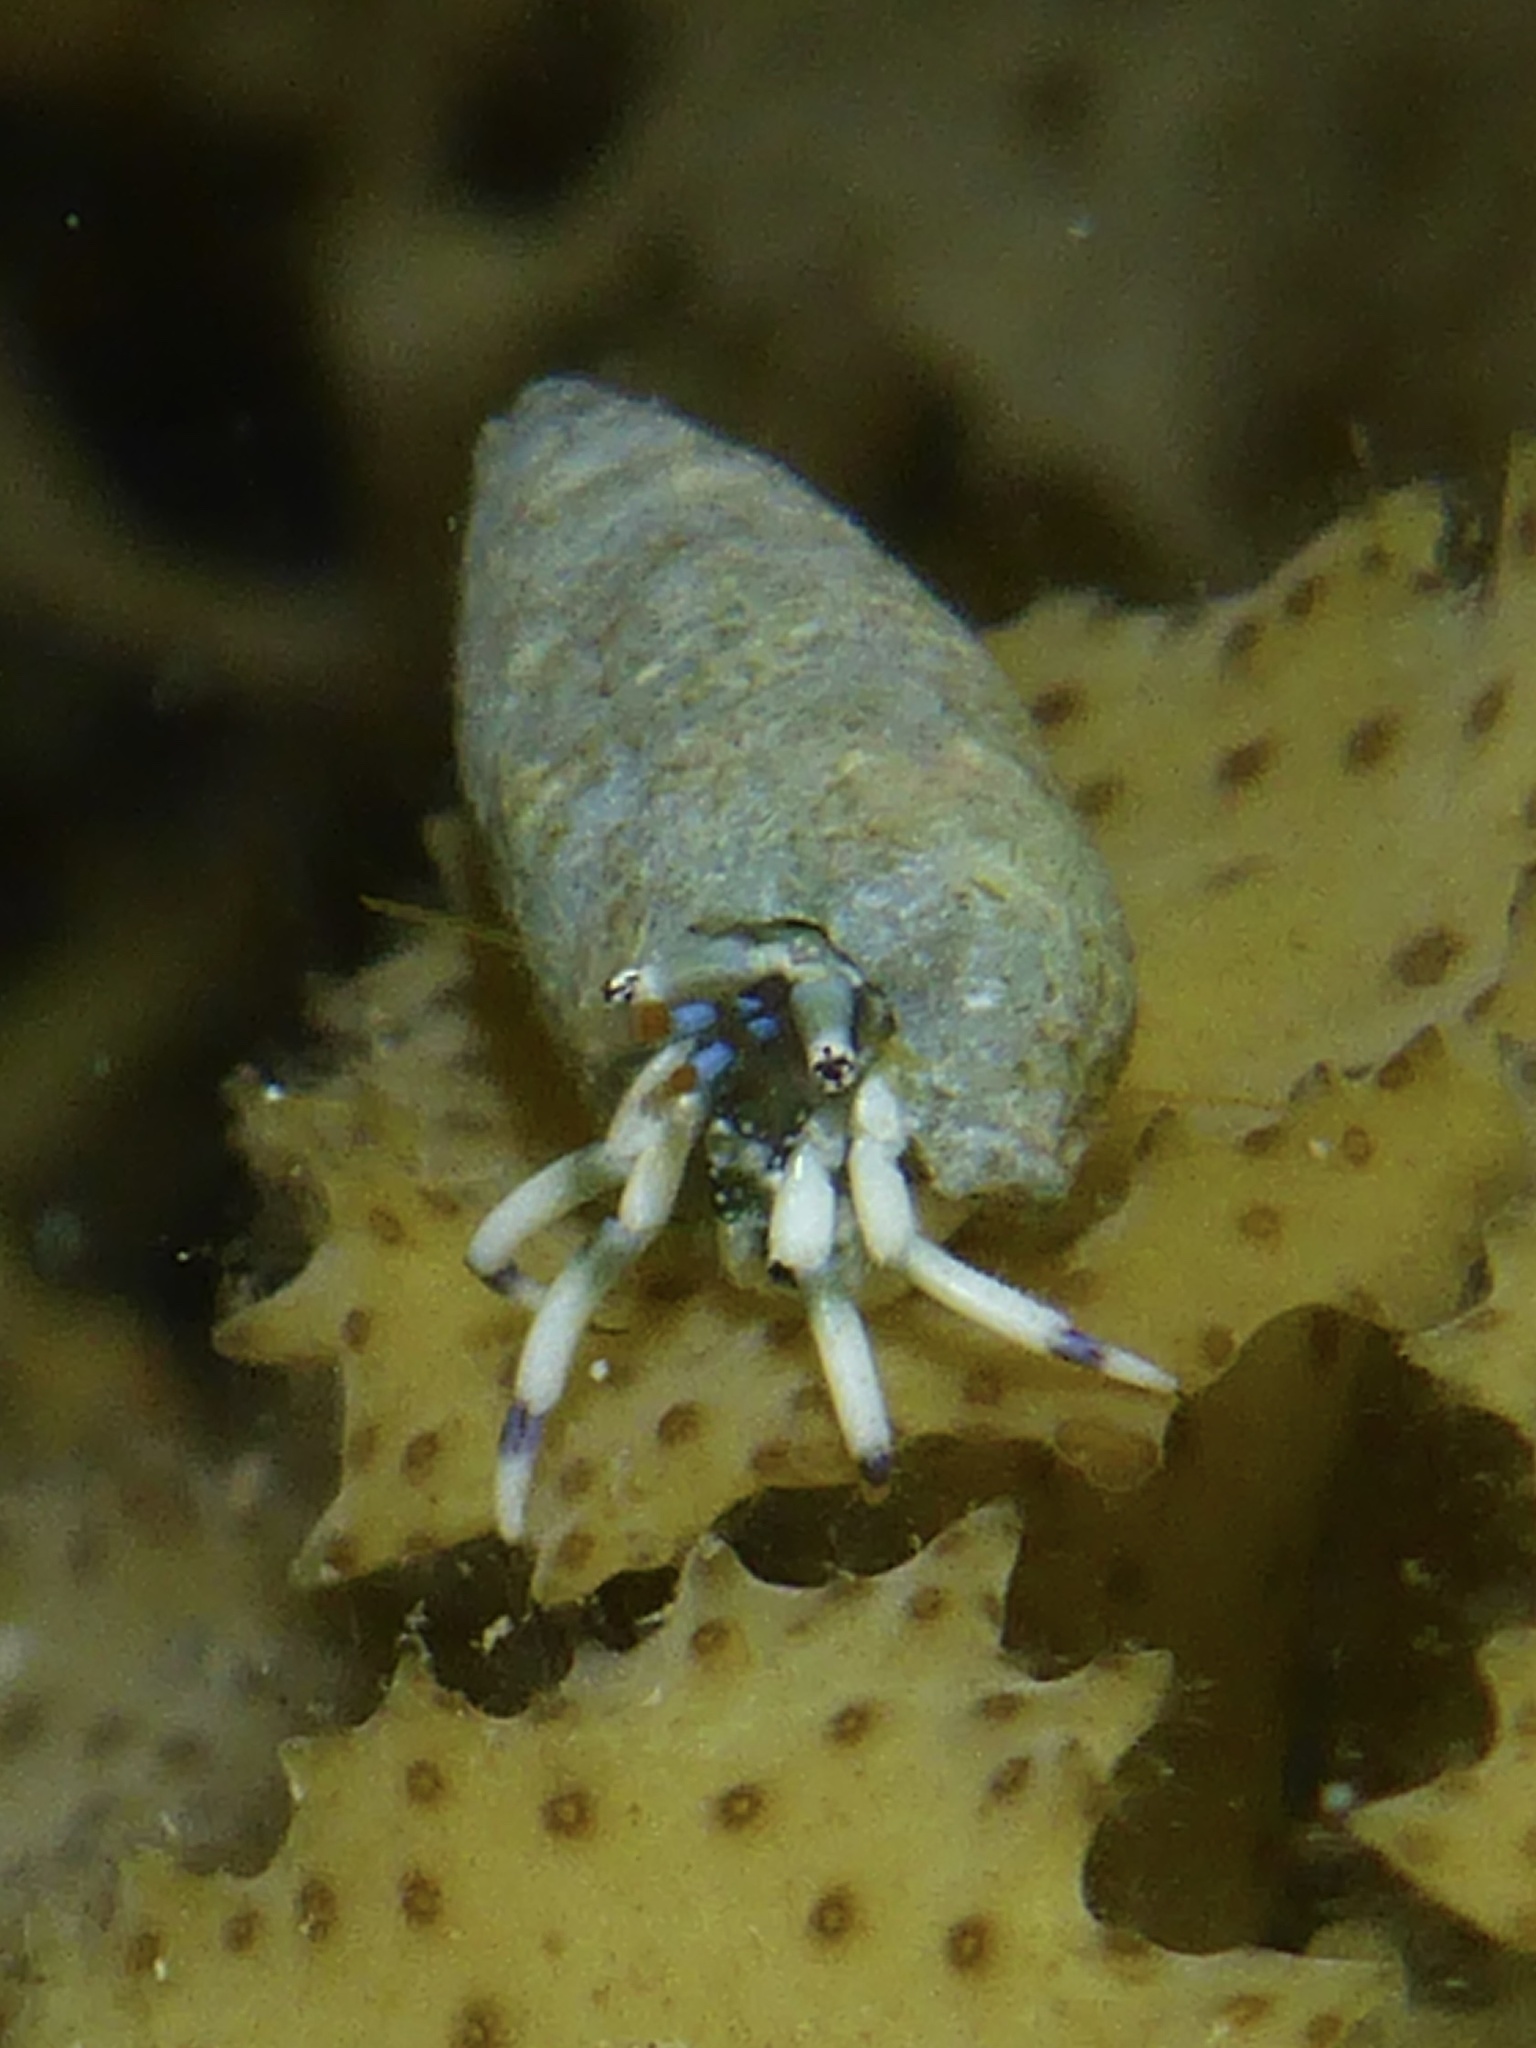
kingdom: Animalia
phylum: Arthropoda
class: Malacostraca
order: Decapoda
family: Diogenidae
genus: Calcinus
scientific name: Calcinus latens
